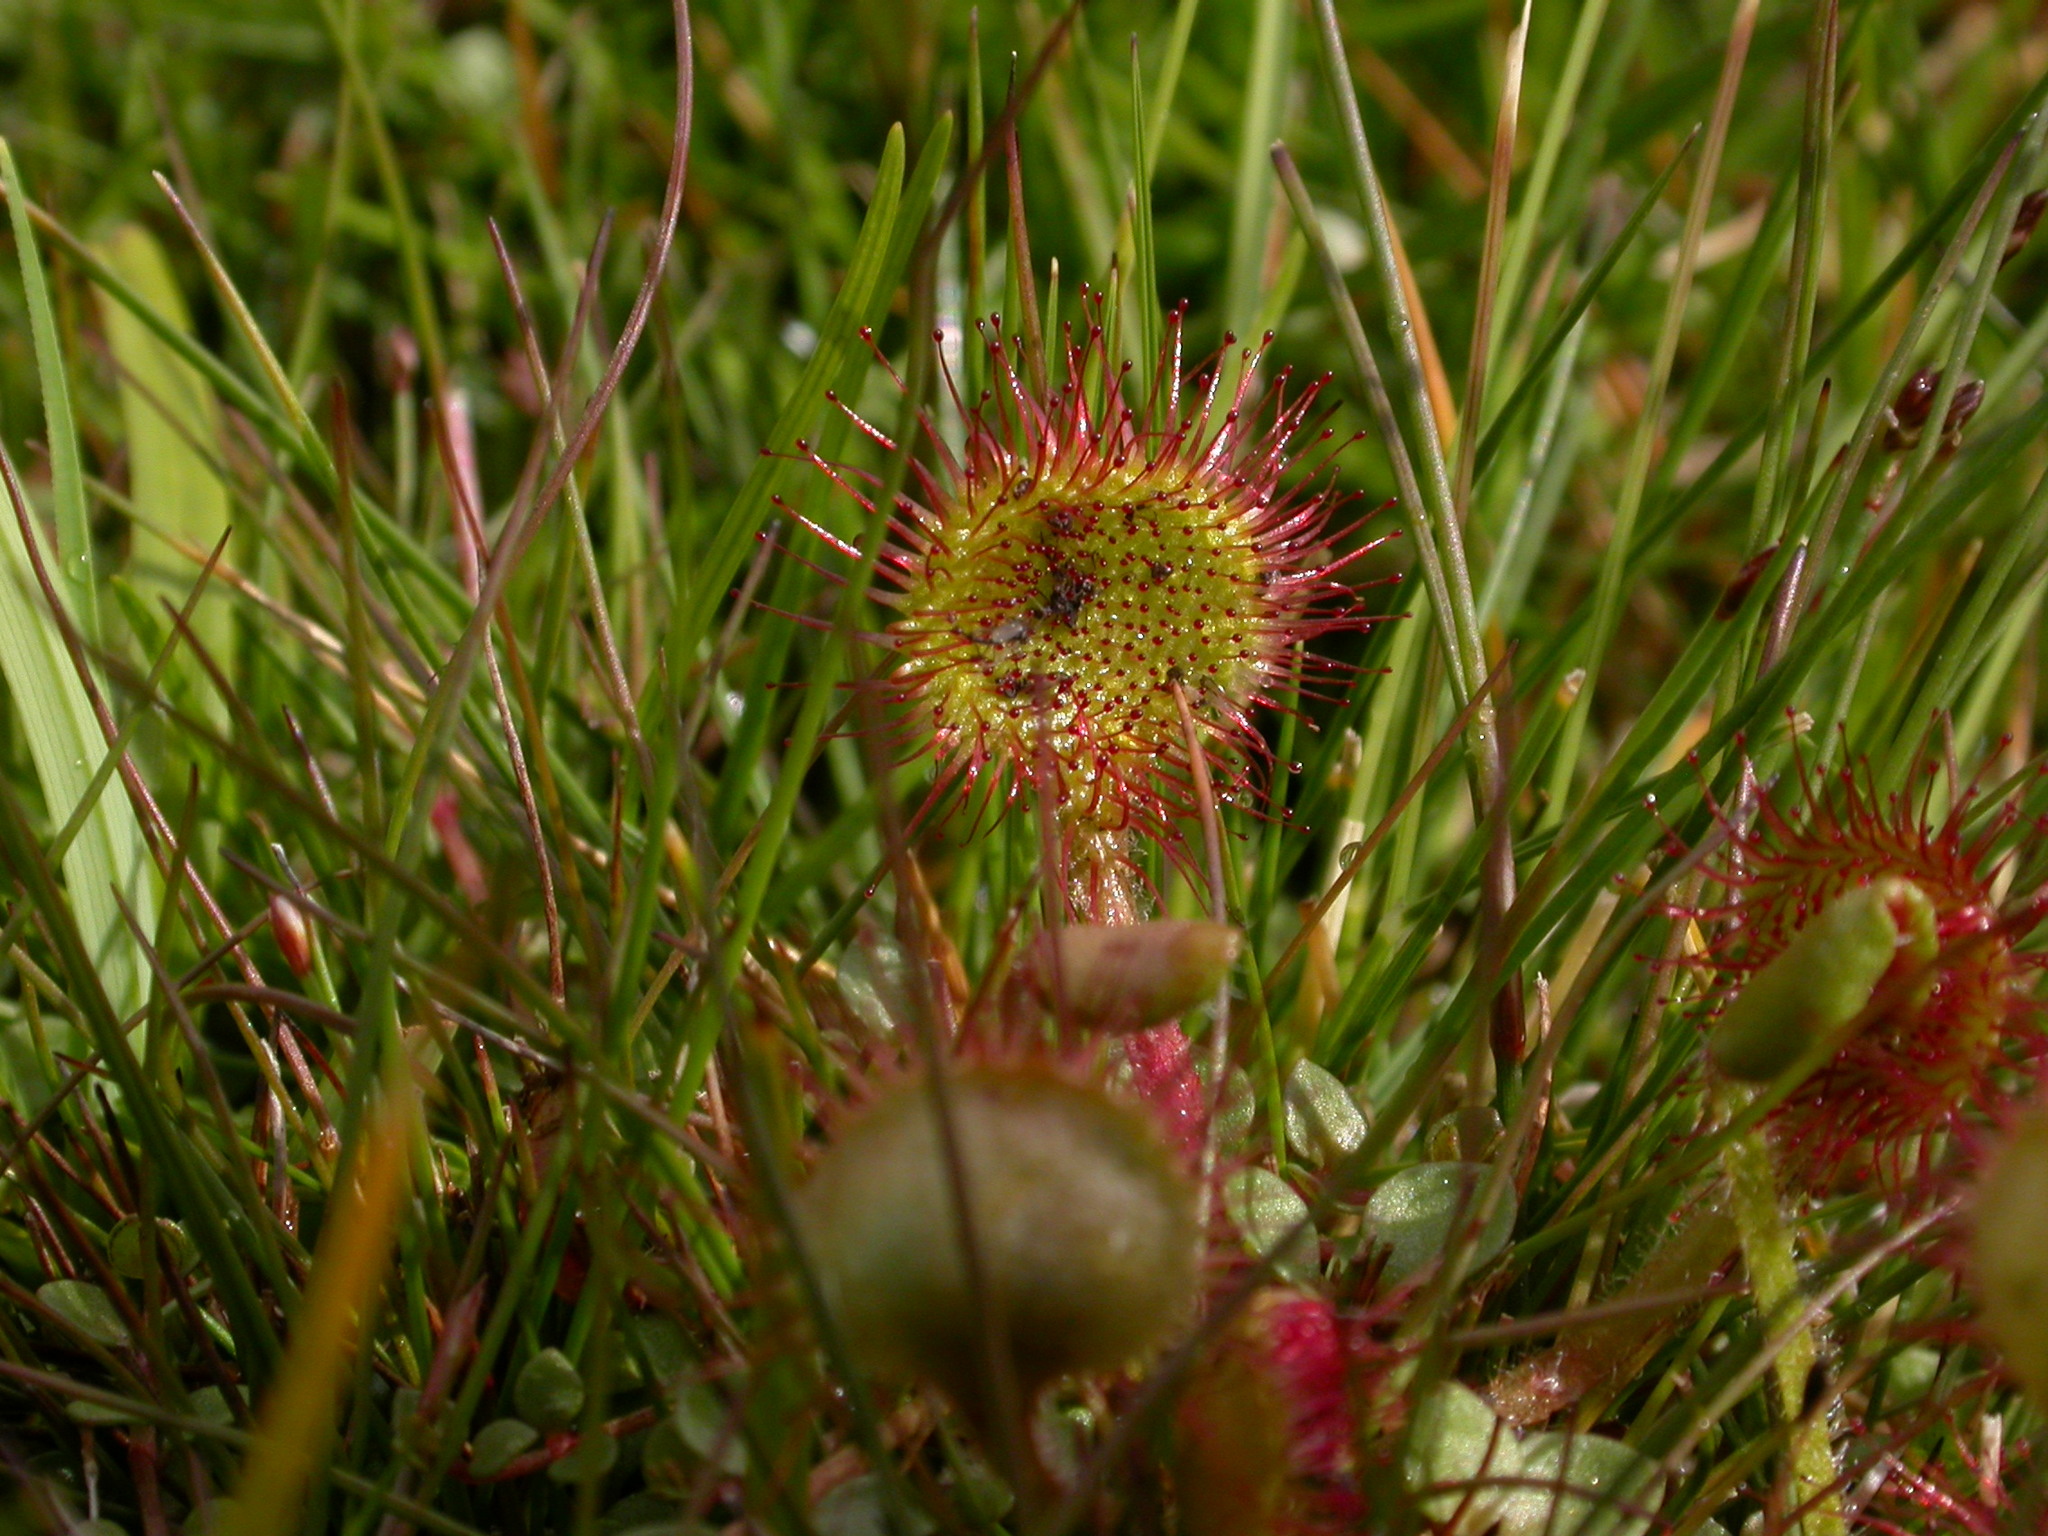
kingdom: Plantae
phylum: Tracheophyta
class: Magnoliopsida
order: Caryophyllales
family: Droseraceae
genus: Drosera
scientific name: Drosera rotundifolia
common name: Round-leaved sundew
